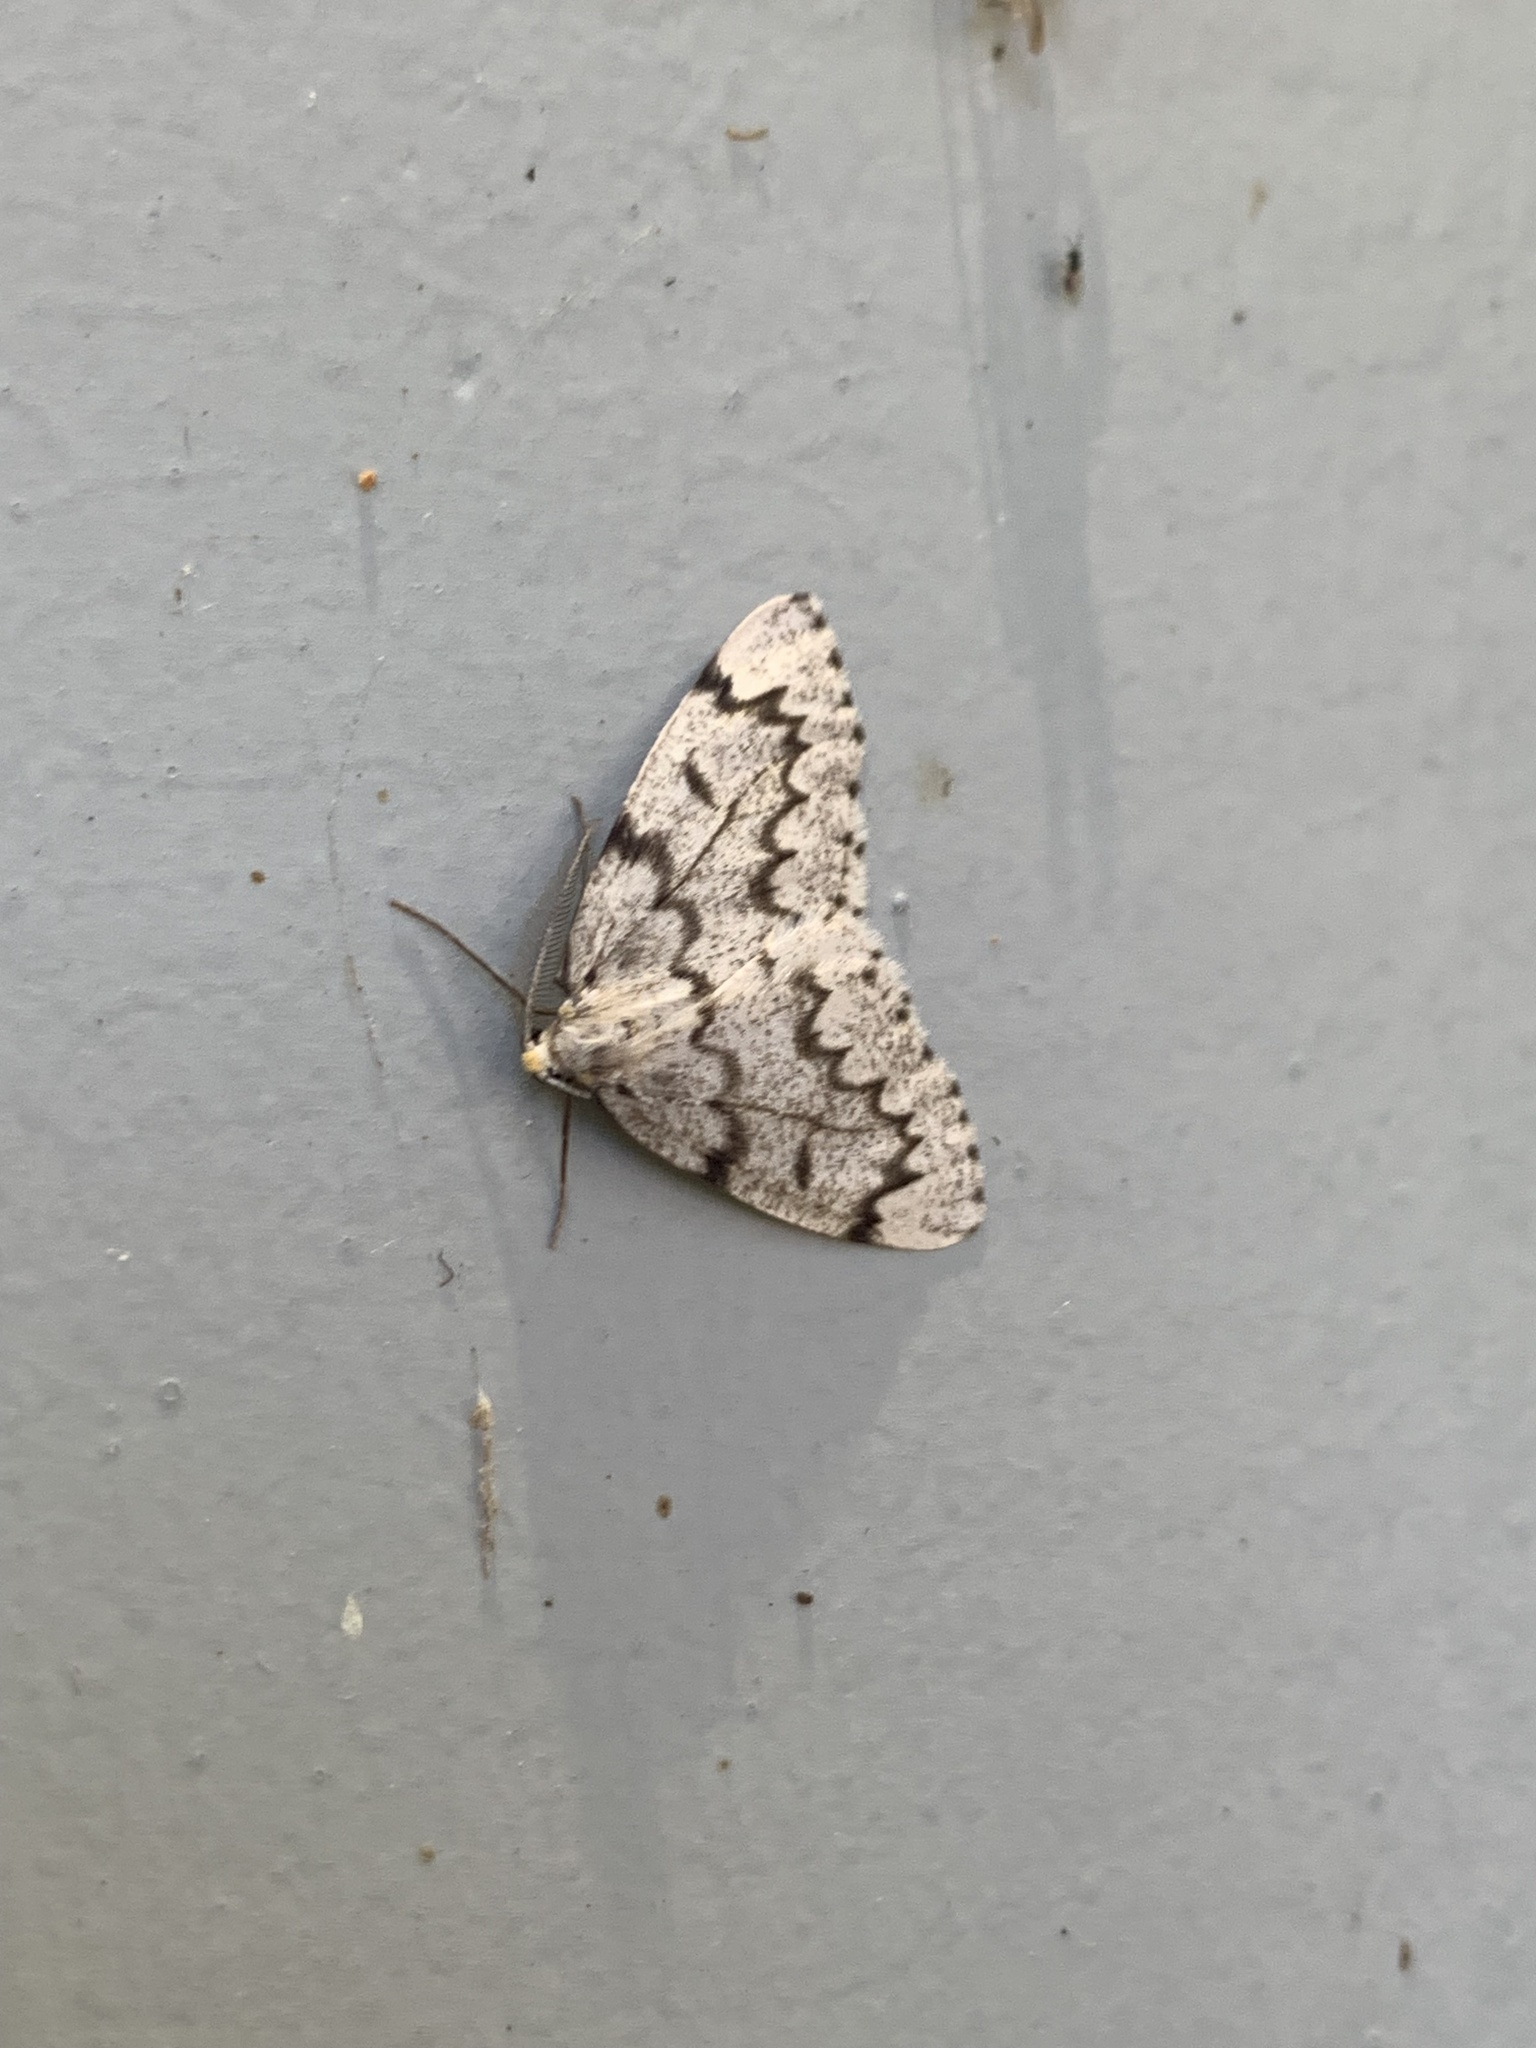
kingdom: Animalia
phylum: Arthropoda
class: Insecta
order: Lepidoptera
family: Geometridae
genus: Nepytia
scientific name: Nepytia canosaria
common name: False hemlock looper
